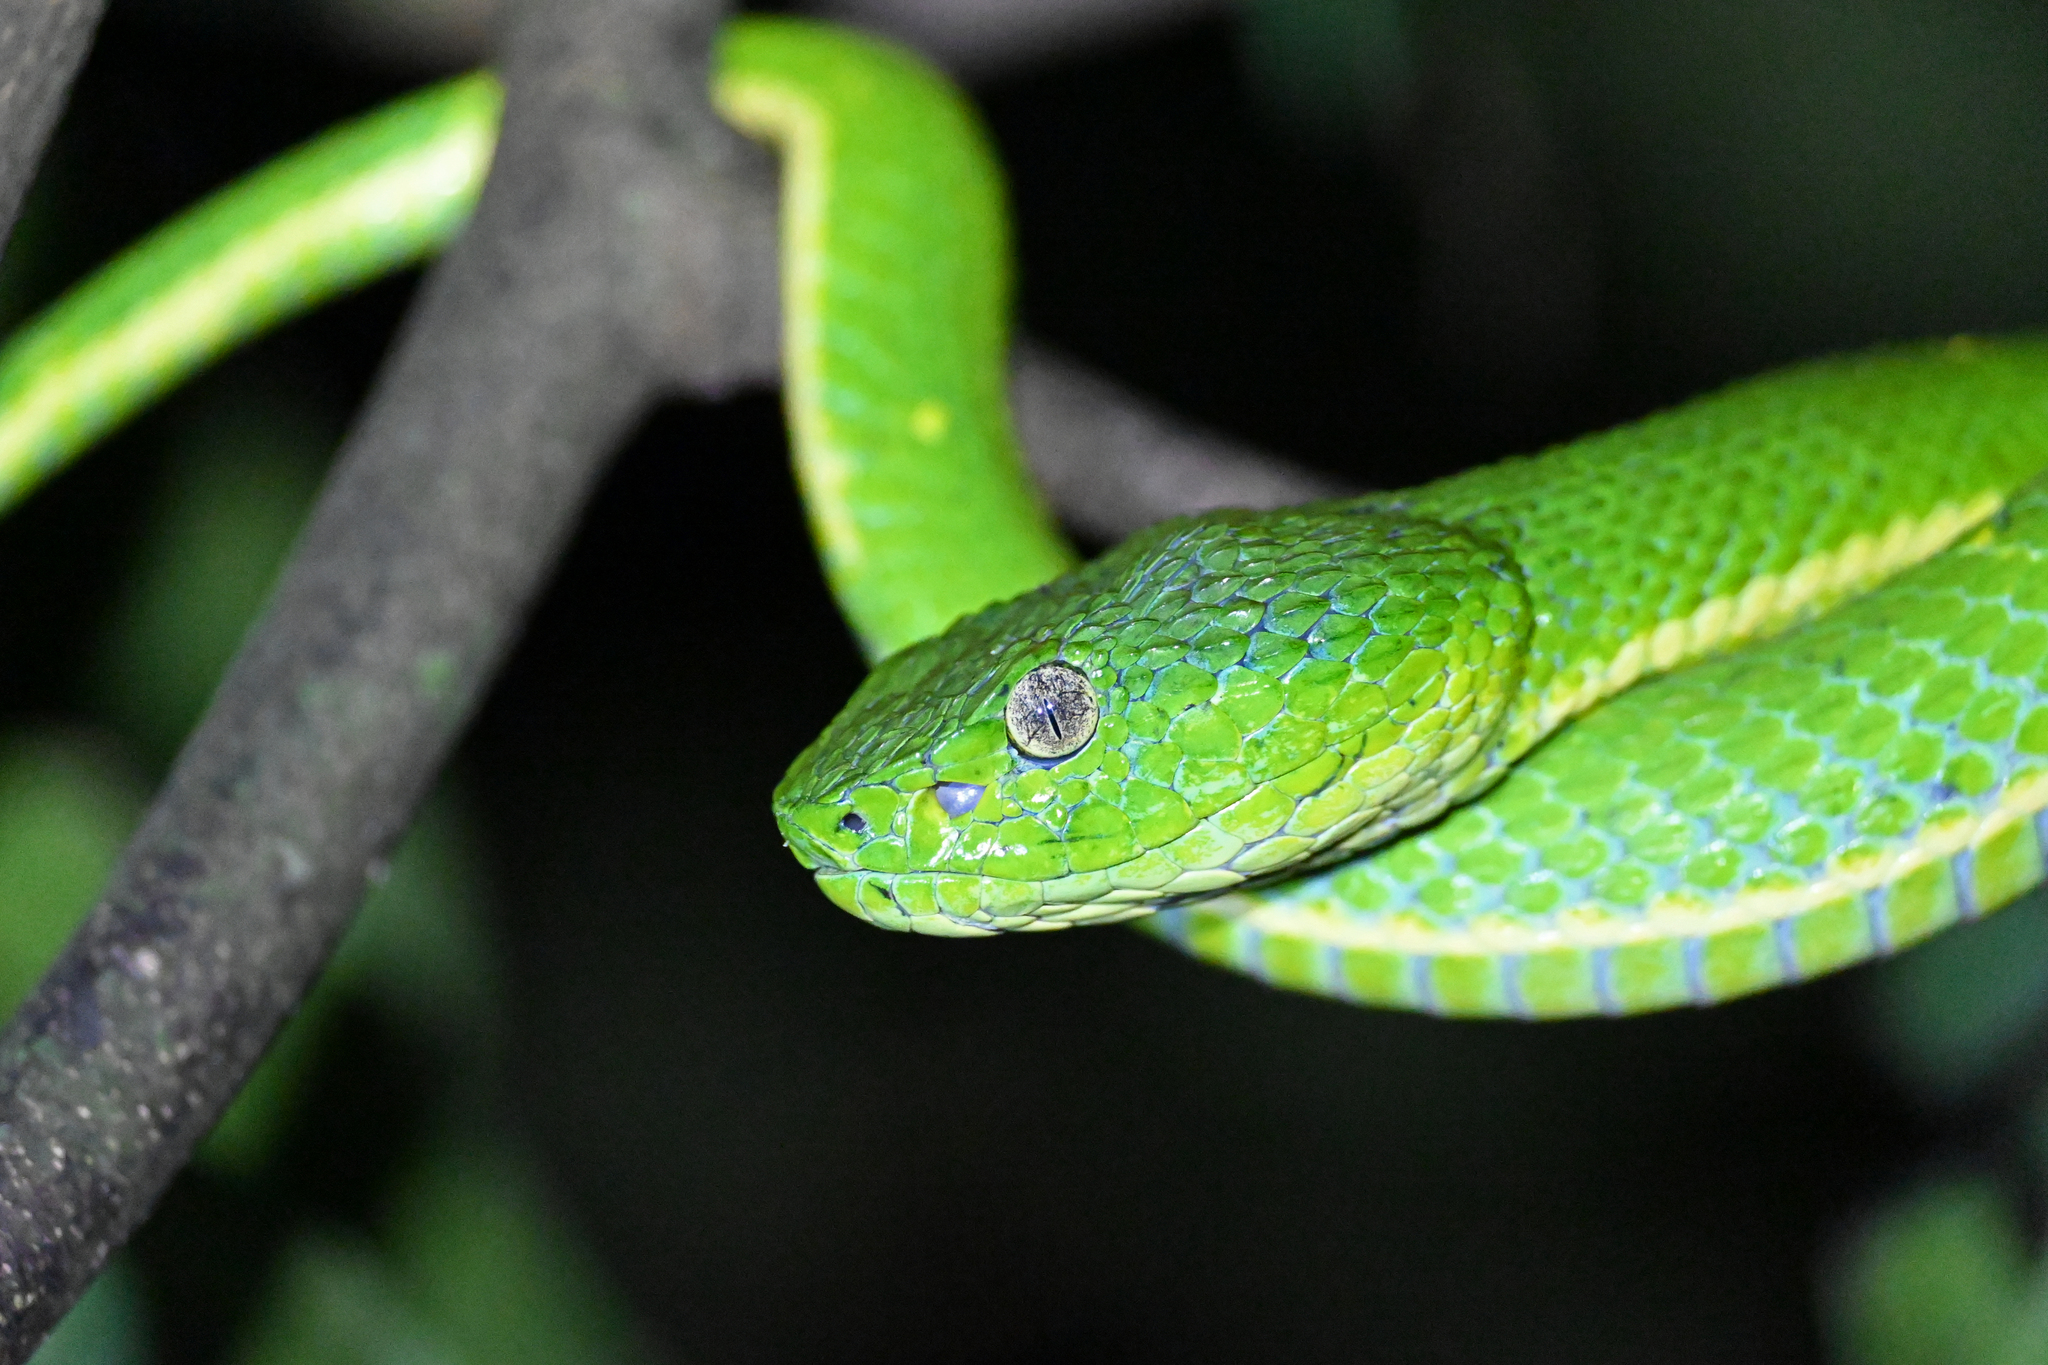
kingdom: Animalia
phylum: Chordata
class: Squamata
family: Viperidae
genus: Bothriechis
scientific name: Bothriechis lateralis
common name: Coffee palm viper
